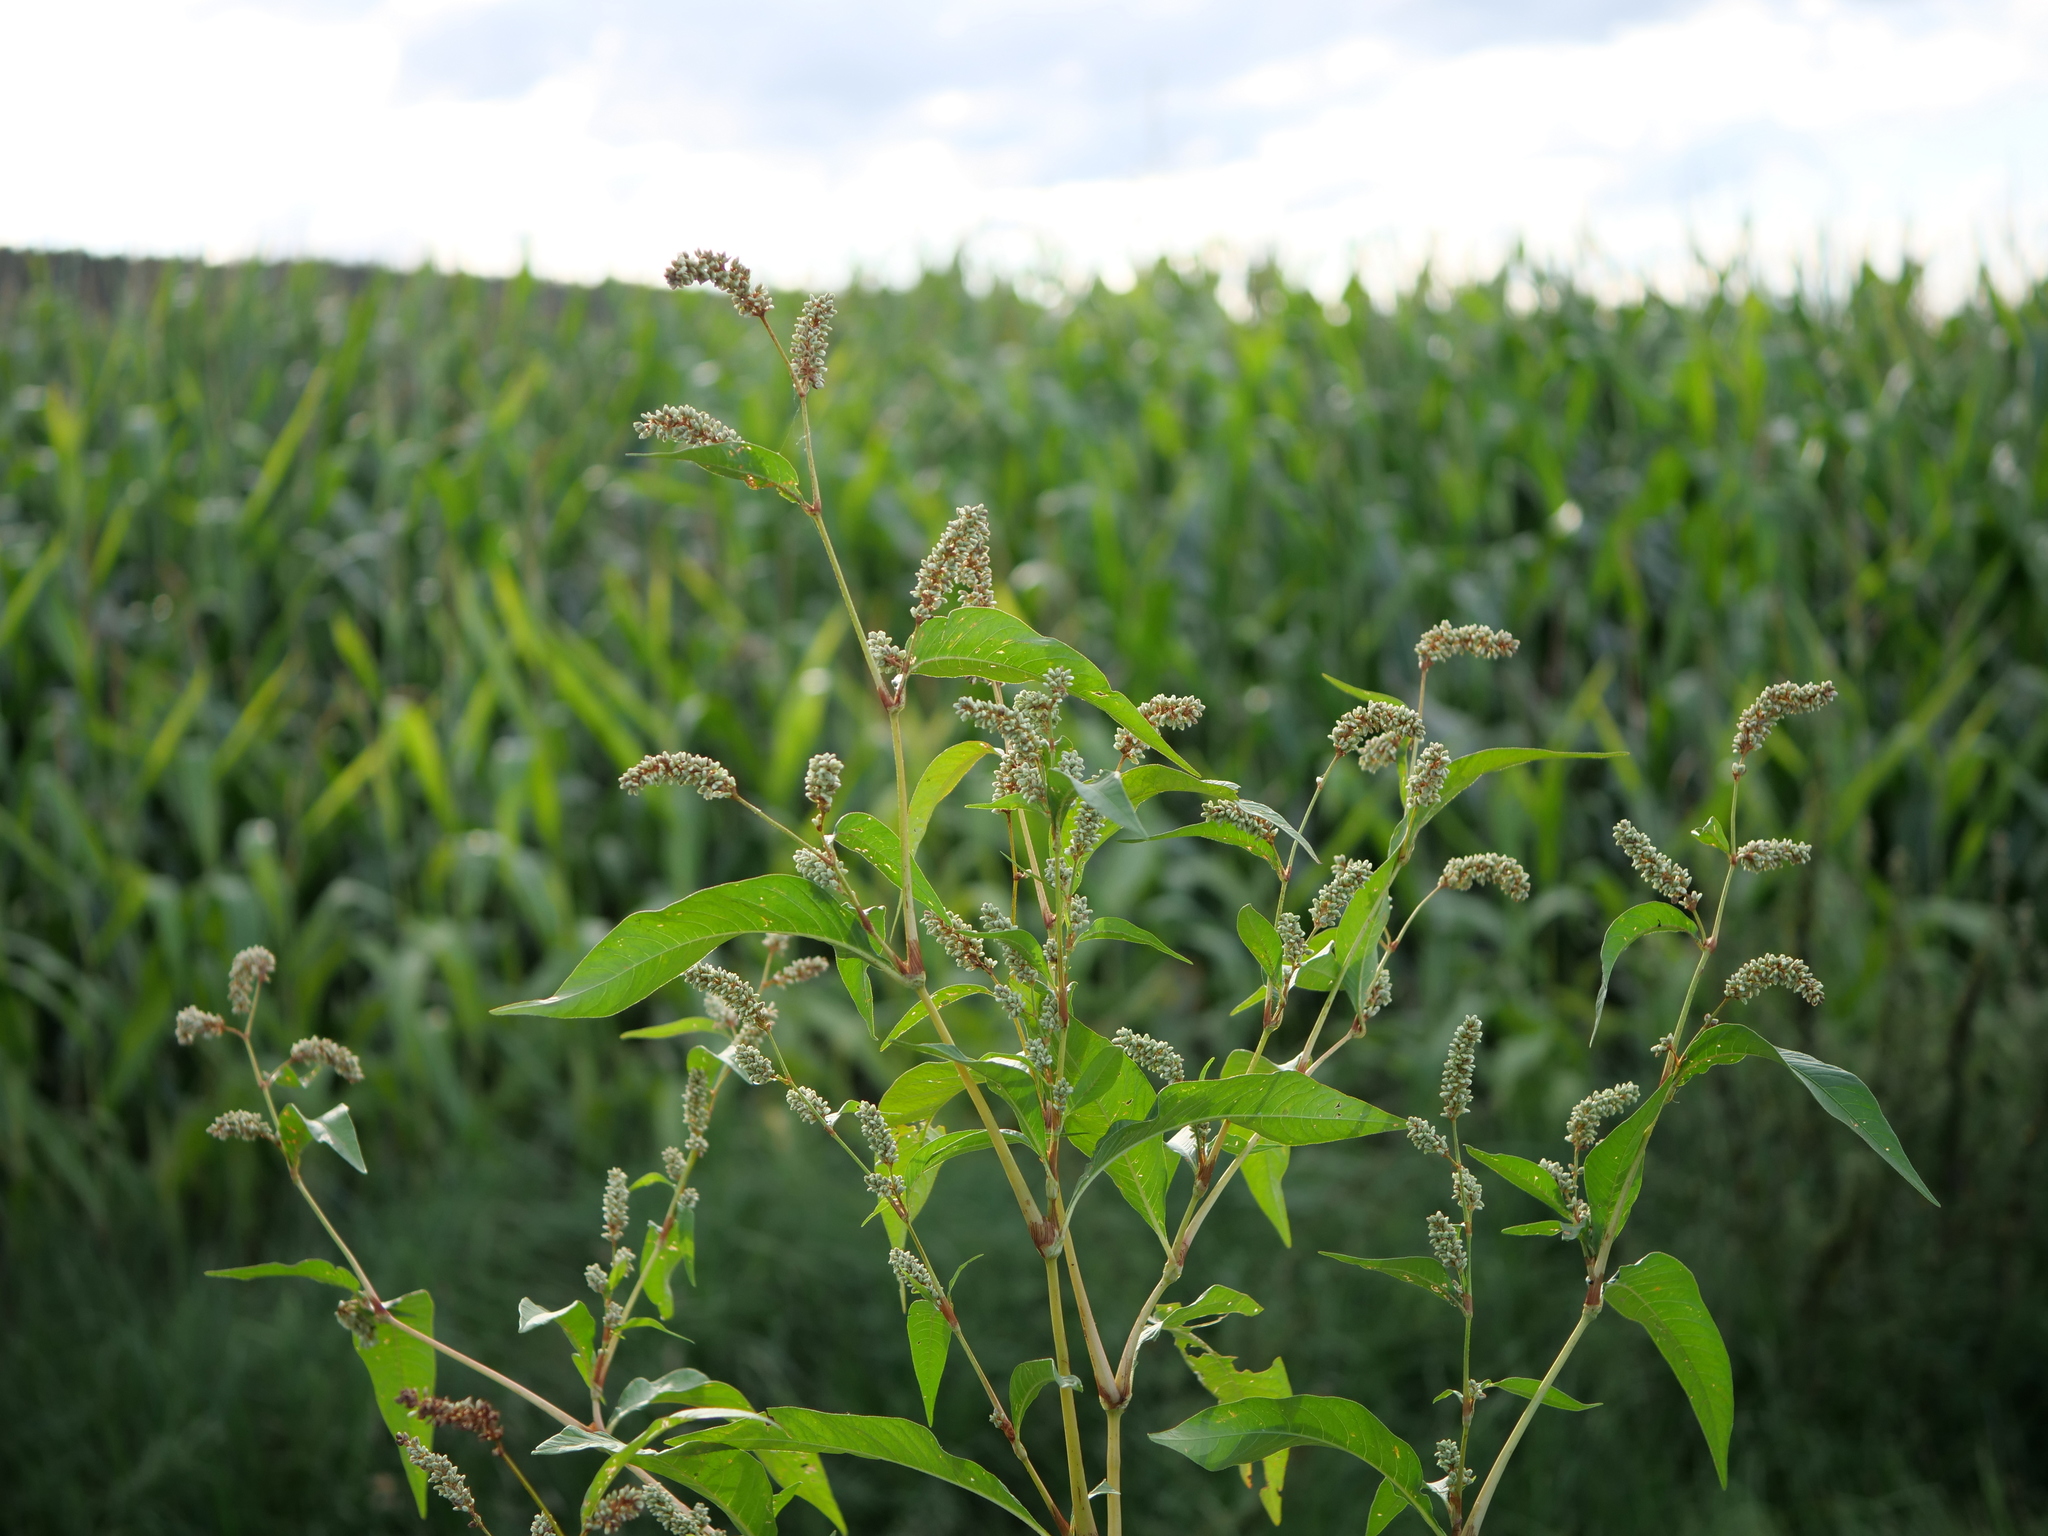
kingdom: Plantae
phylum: Tracheophyta
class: Magnoliopsida
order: Caryophyllales
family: Polygonaceae
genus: Persicaria
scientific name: Persicaria lapathifolia
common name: Curlytop knotweed
